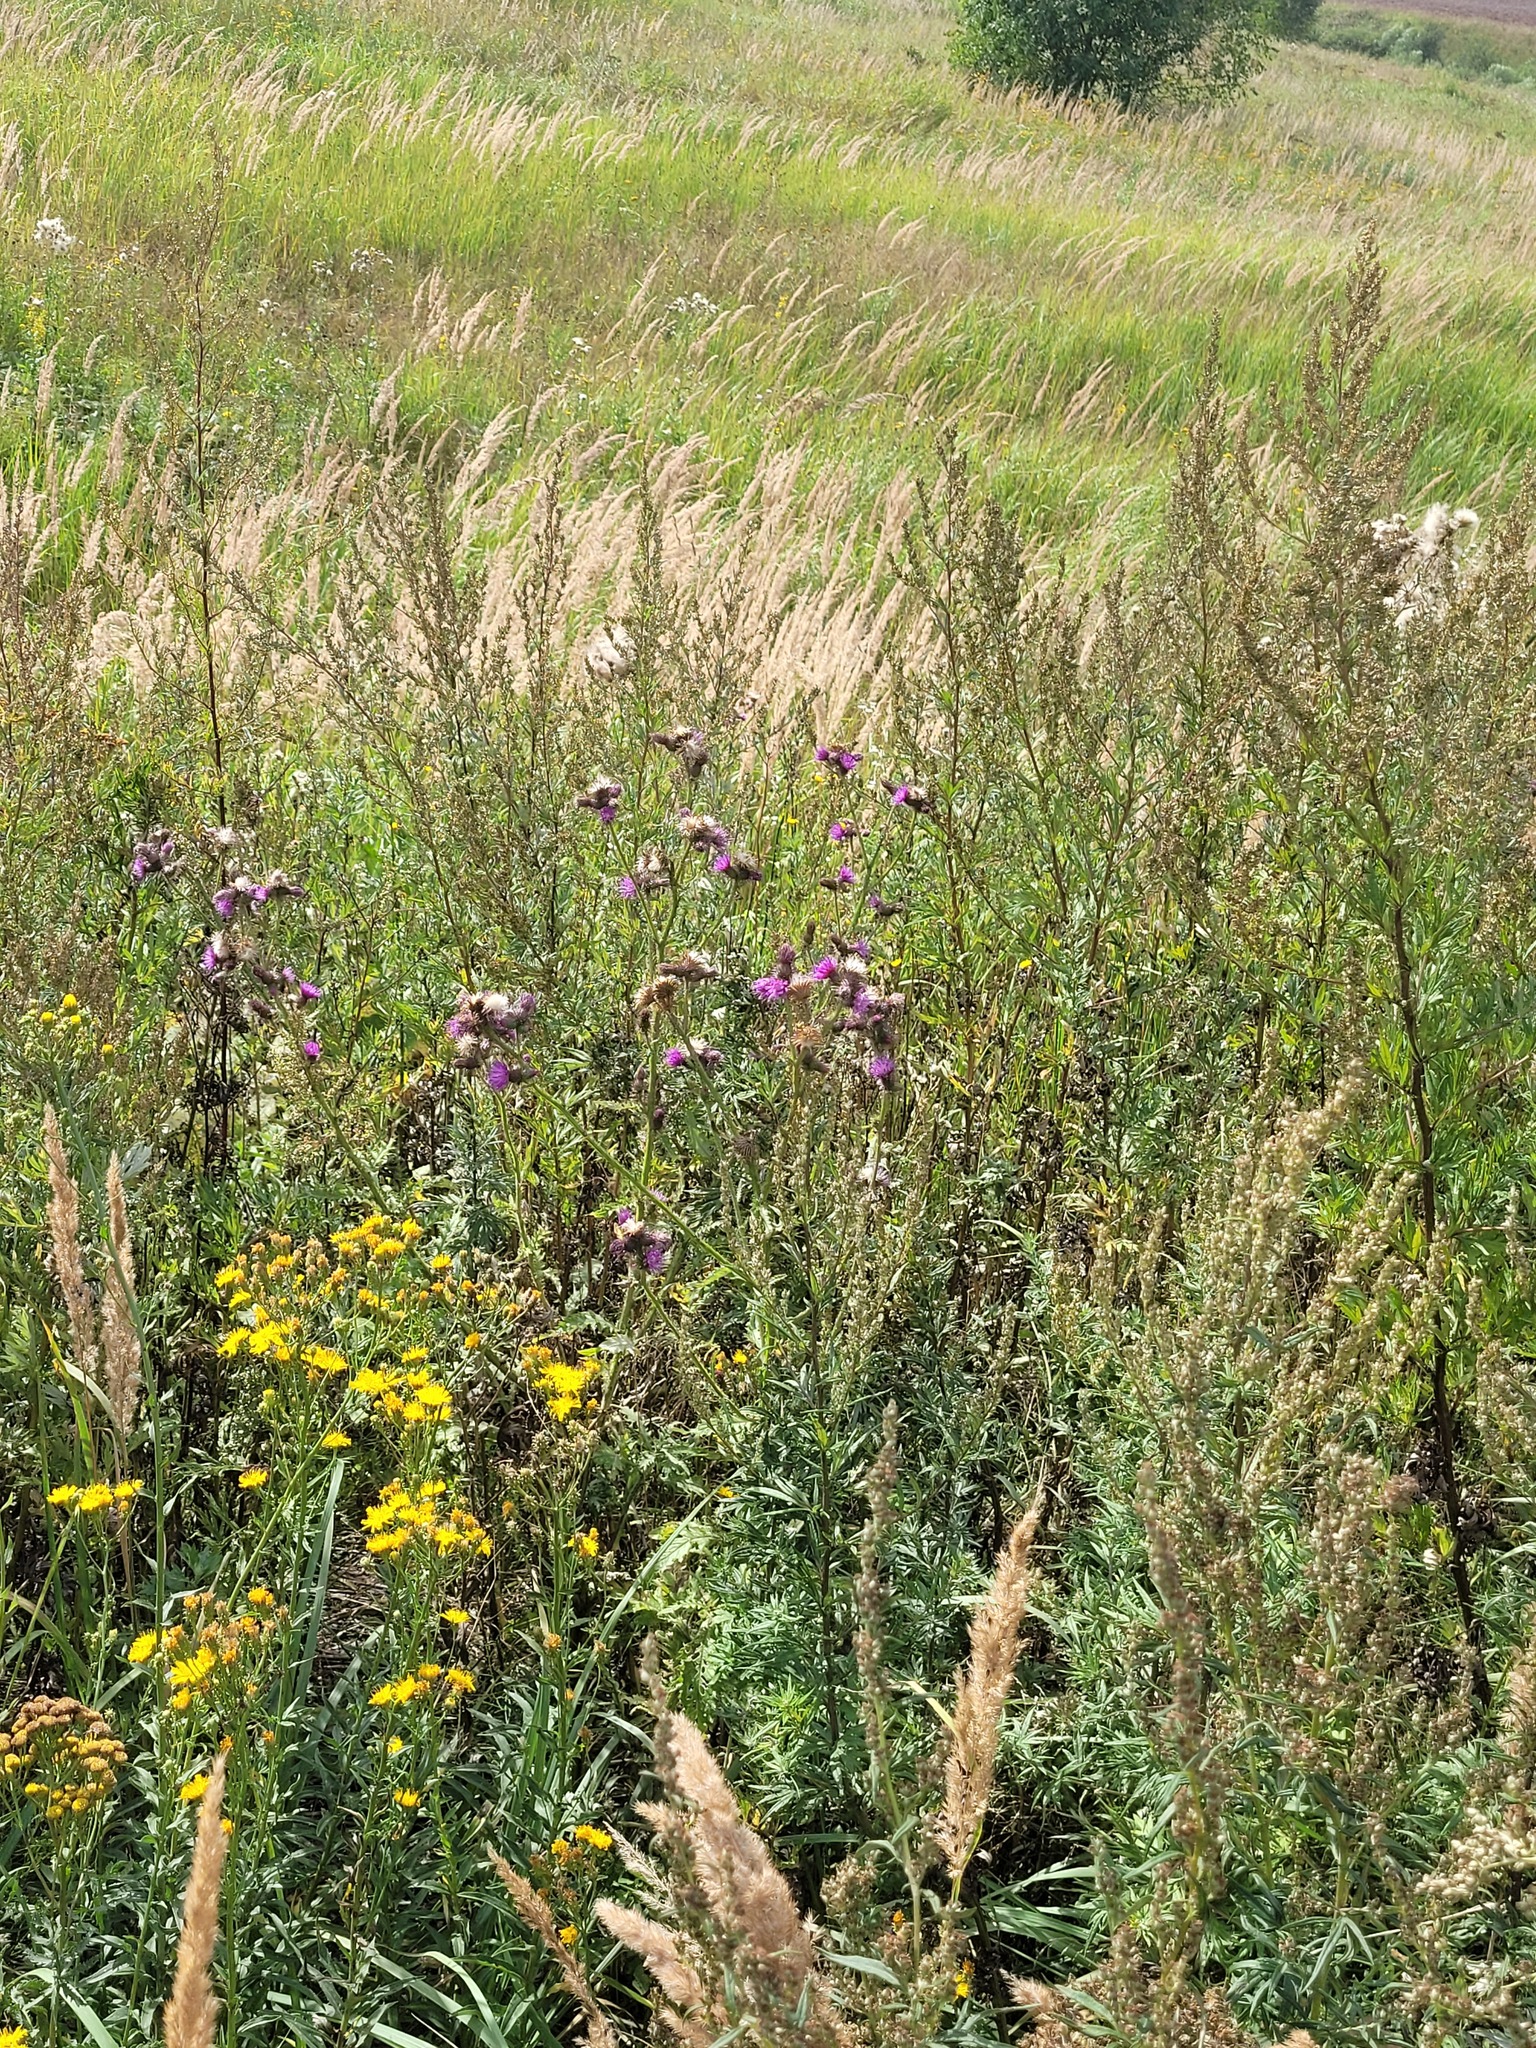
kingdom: Plantae
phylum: Tracheophyta
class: Magnoliopsida
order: Asterales
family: Asteraceae
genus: Carduus
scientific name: Carduus crispus
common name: Welted thistle
